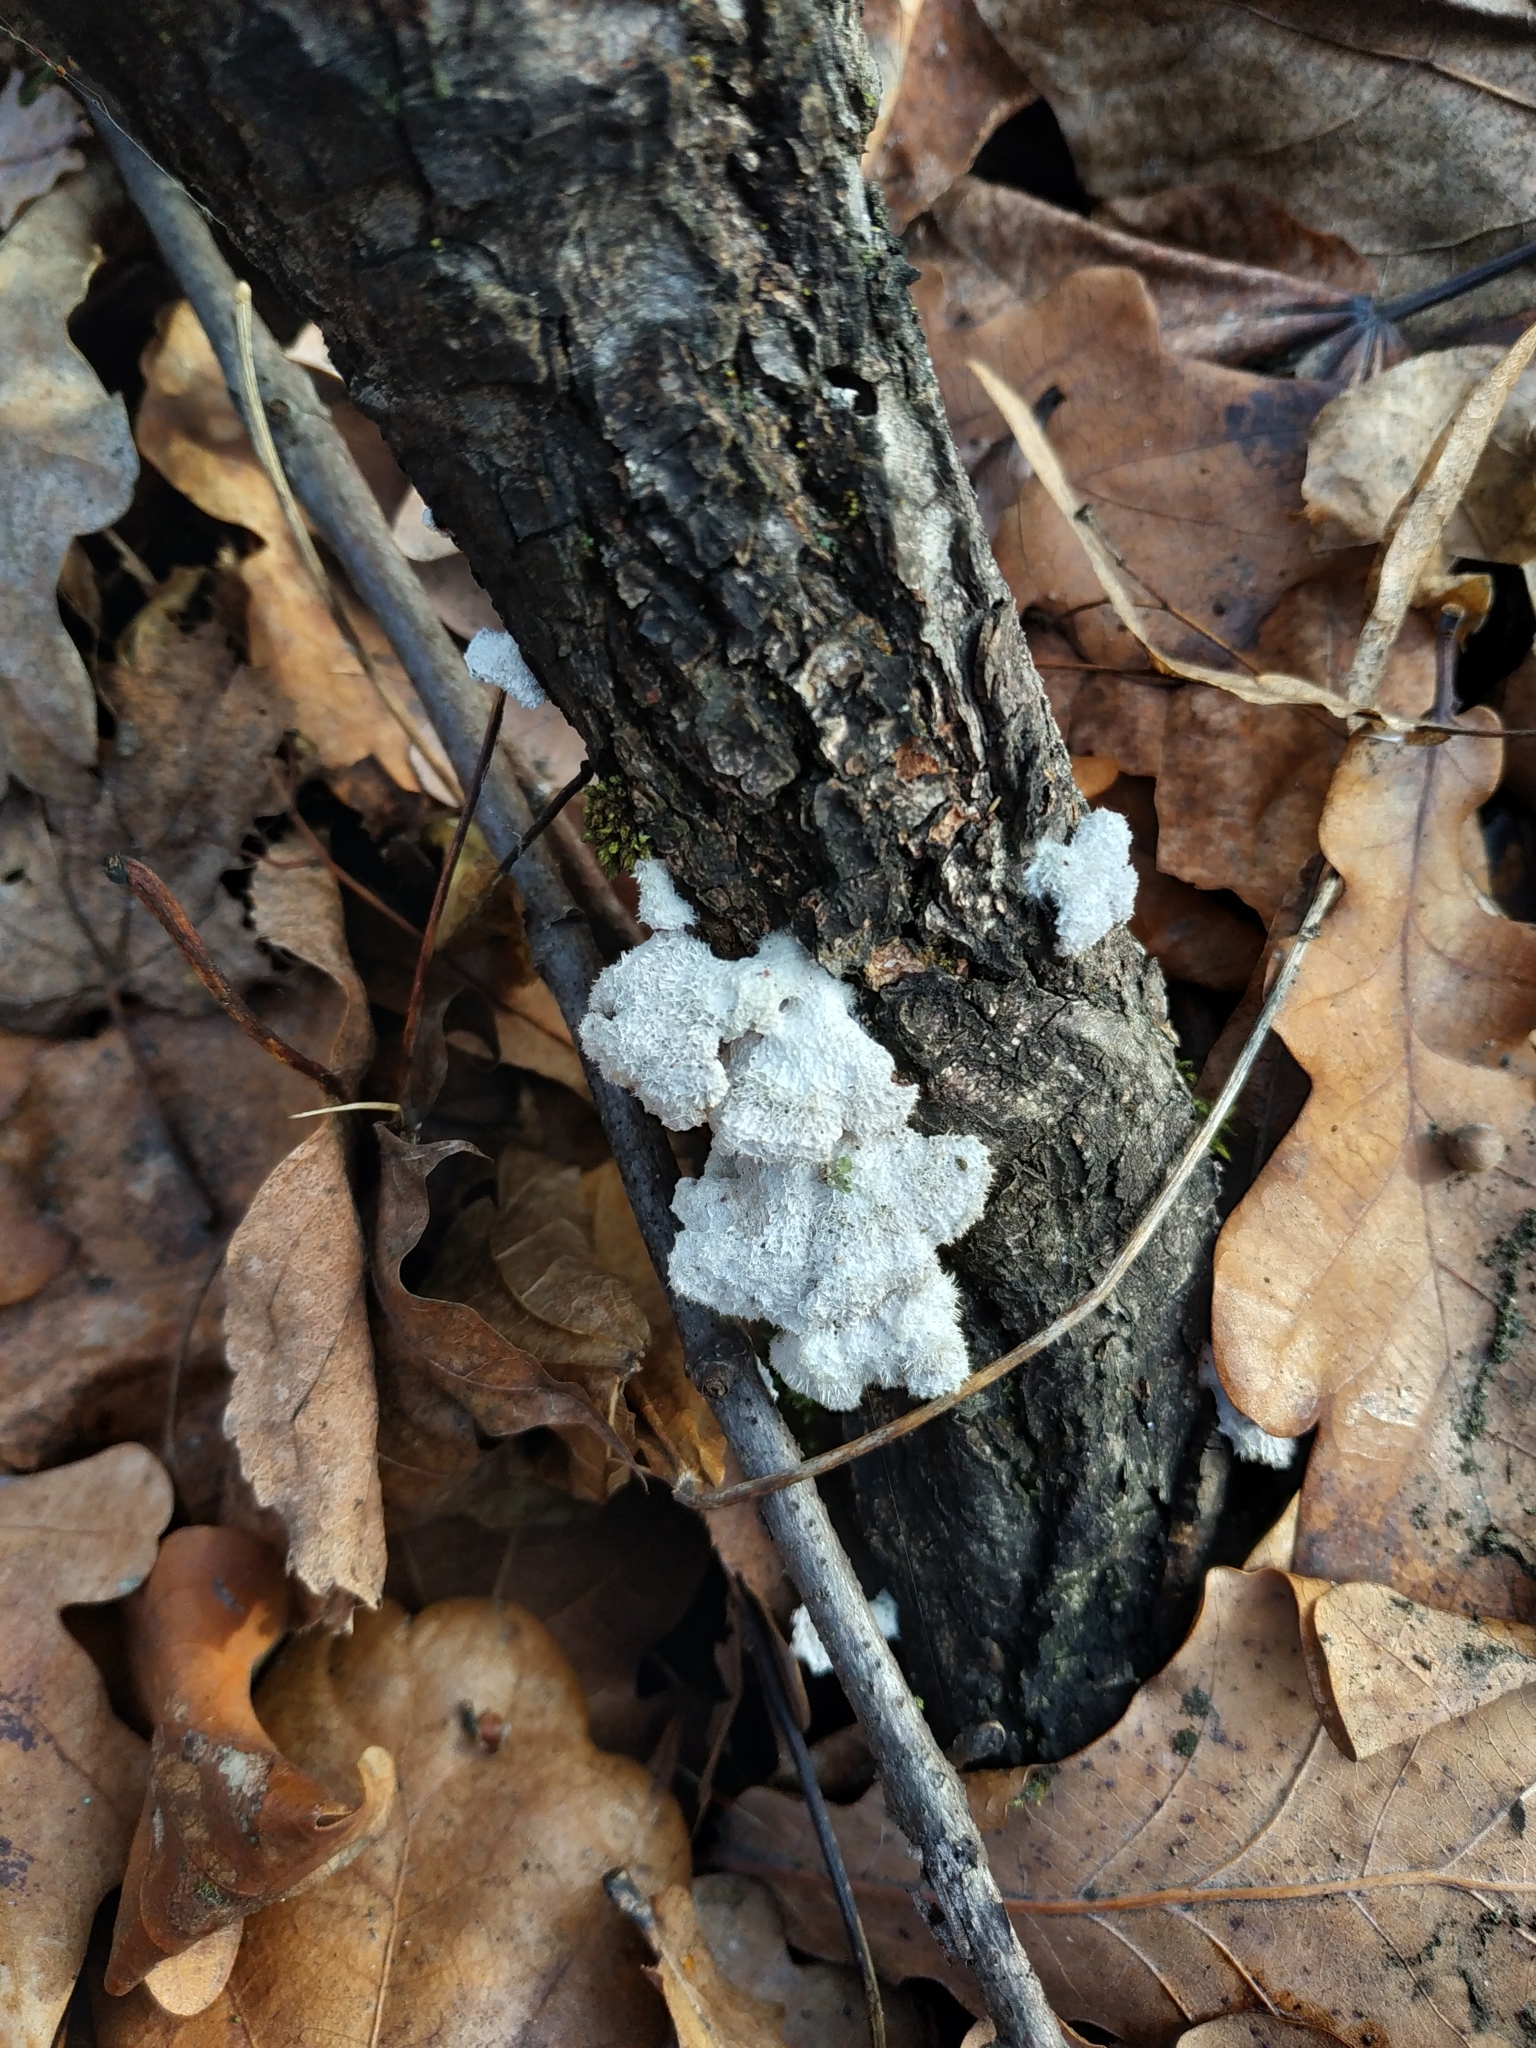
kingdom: Fungi
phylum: Basidiomycota
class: Agaricomycetes
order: Agaricales
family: Schizophyllaceae
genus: Schizophyllum
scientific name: Schizophyllum commune
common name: Common porecrust
